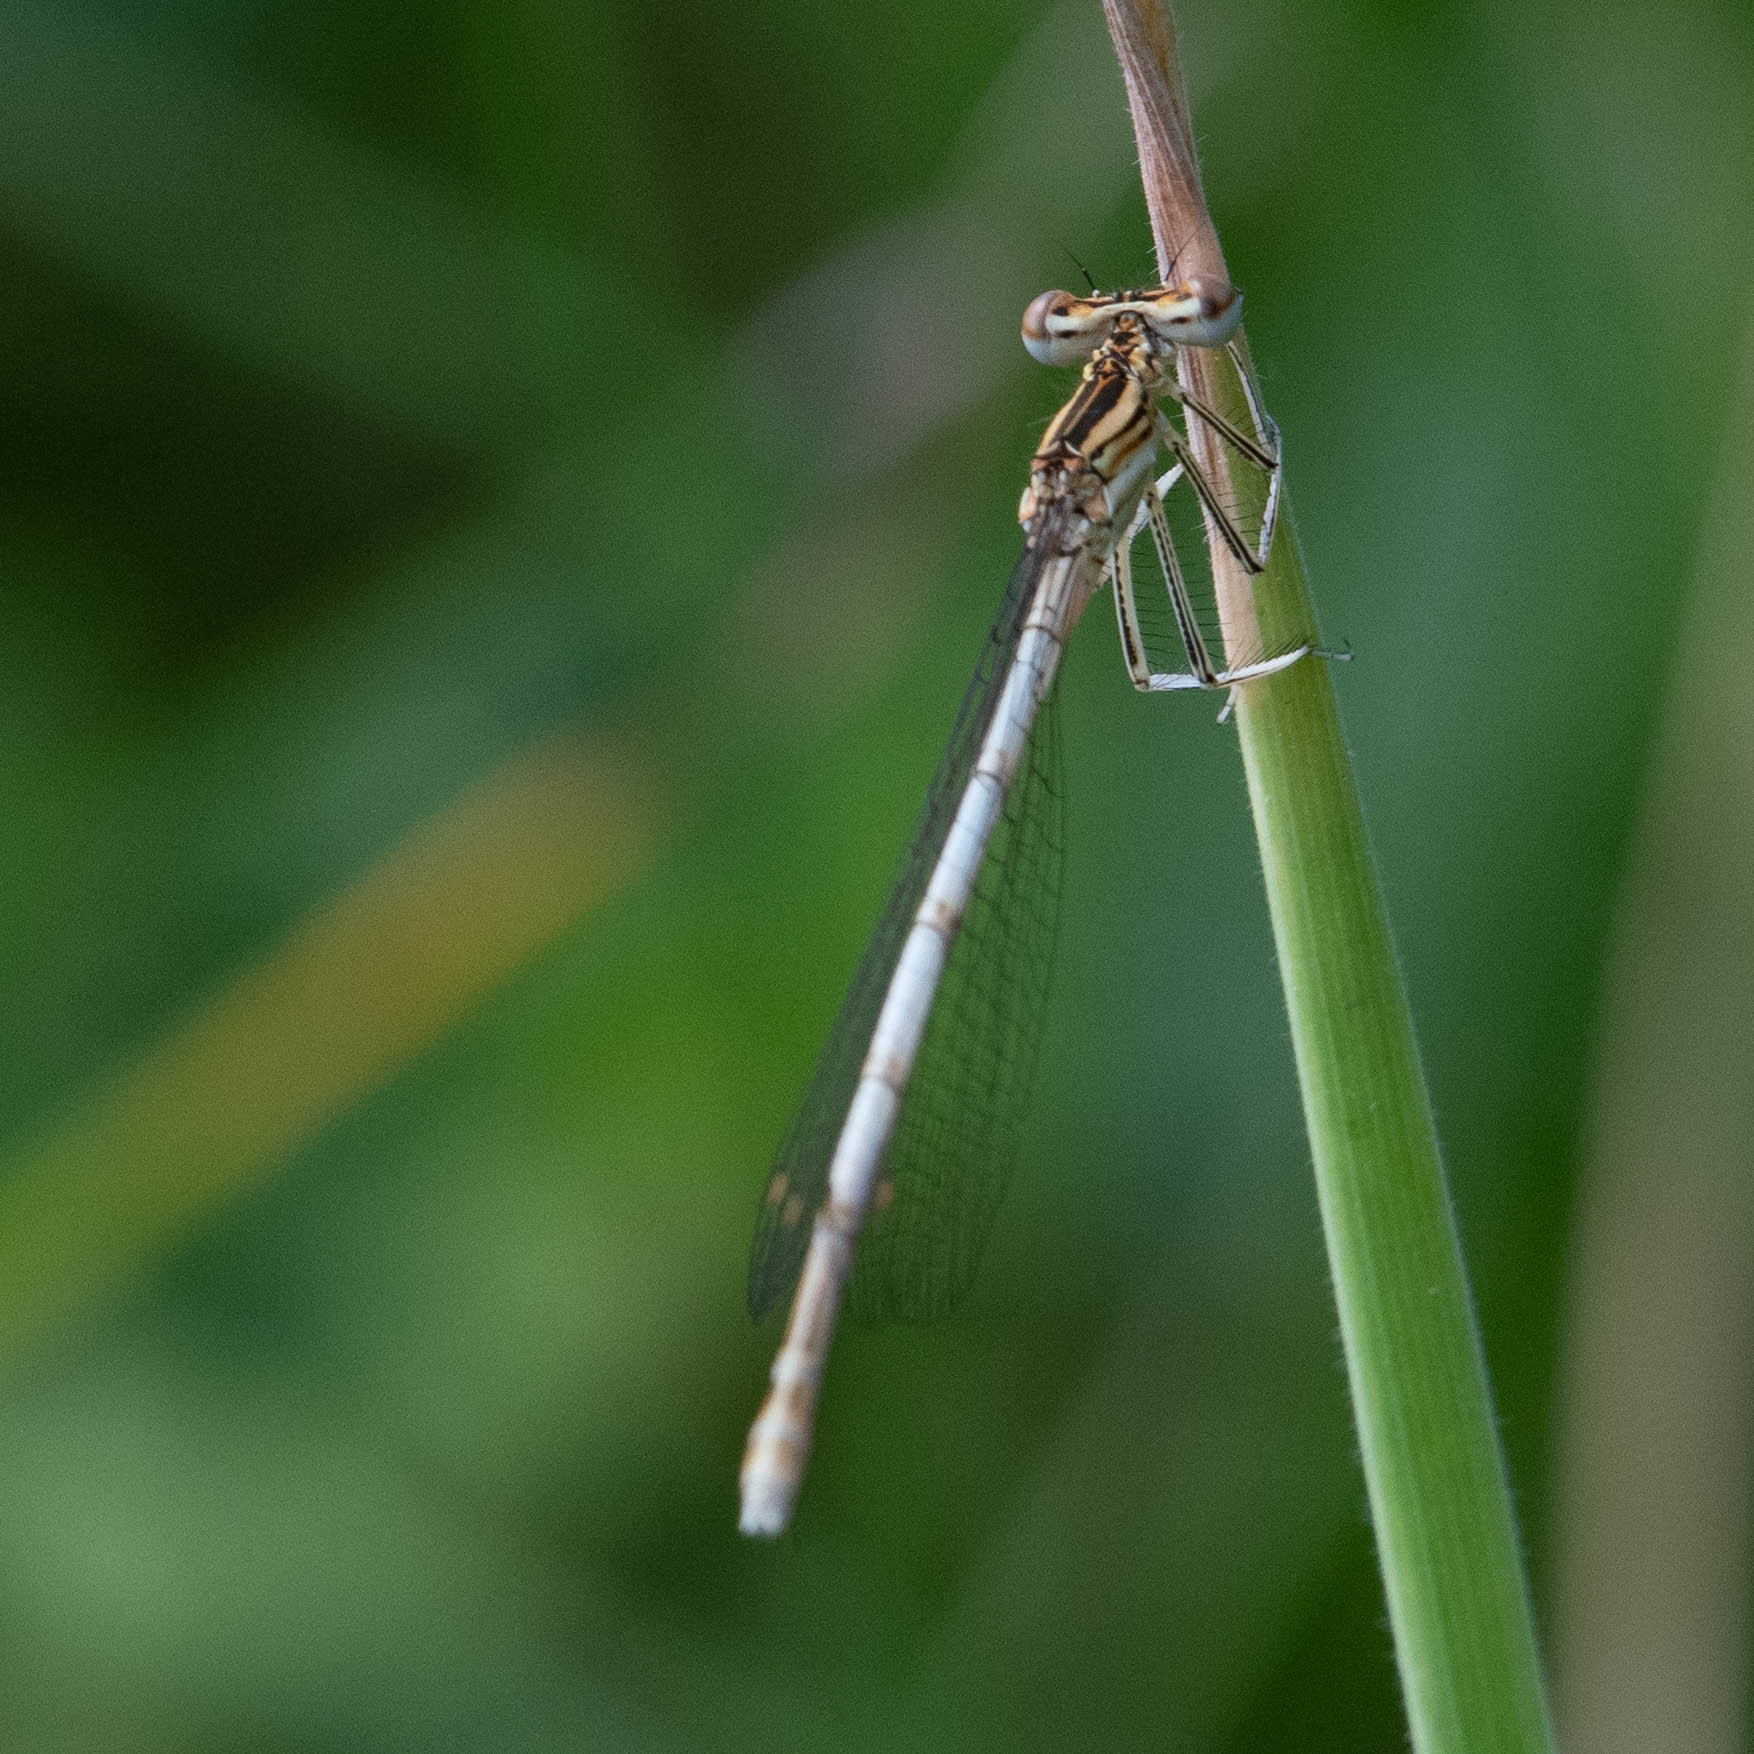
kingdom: Animalia
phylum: Arthropoda
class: Insecta
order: Odonata
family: Platycnemididae
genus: Platycnemis
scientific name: Platycnemis pennipes
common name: White-legged damselfly
